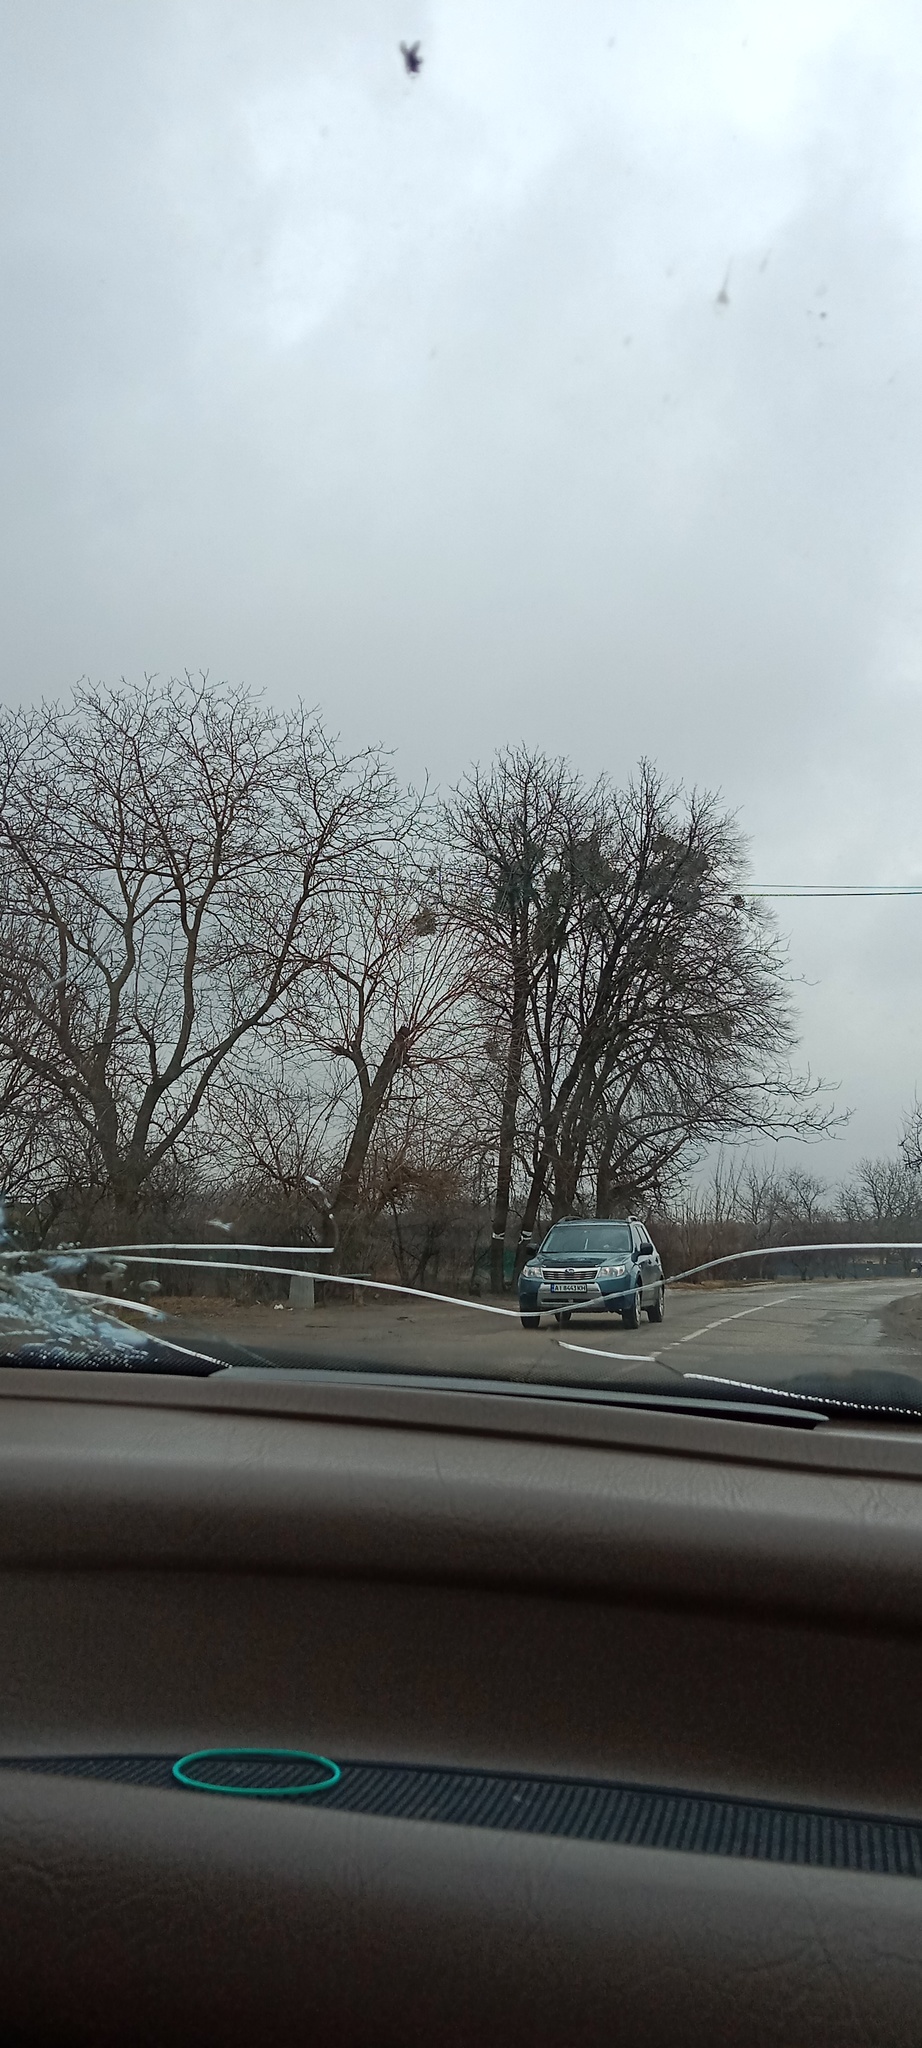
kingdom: Plantae
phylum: Tracheophyta
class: Magnoliopsida
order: Santalales
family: Viscaceae
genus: Viscum
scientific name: Viscum album
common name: Mistletoe
